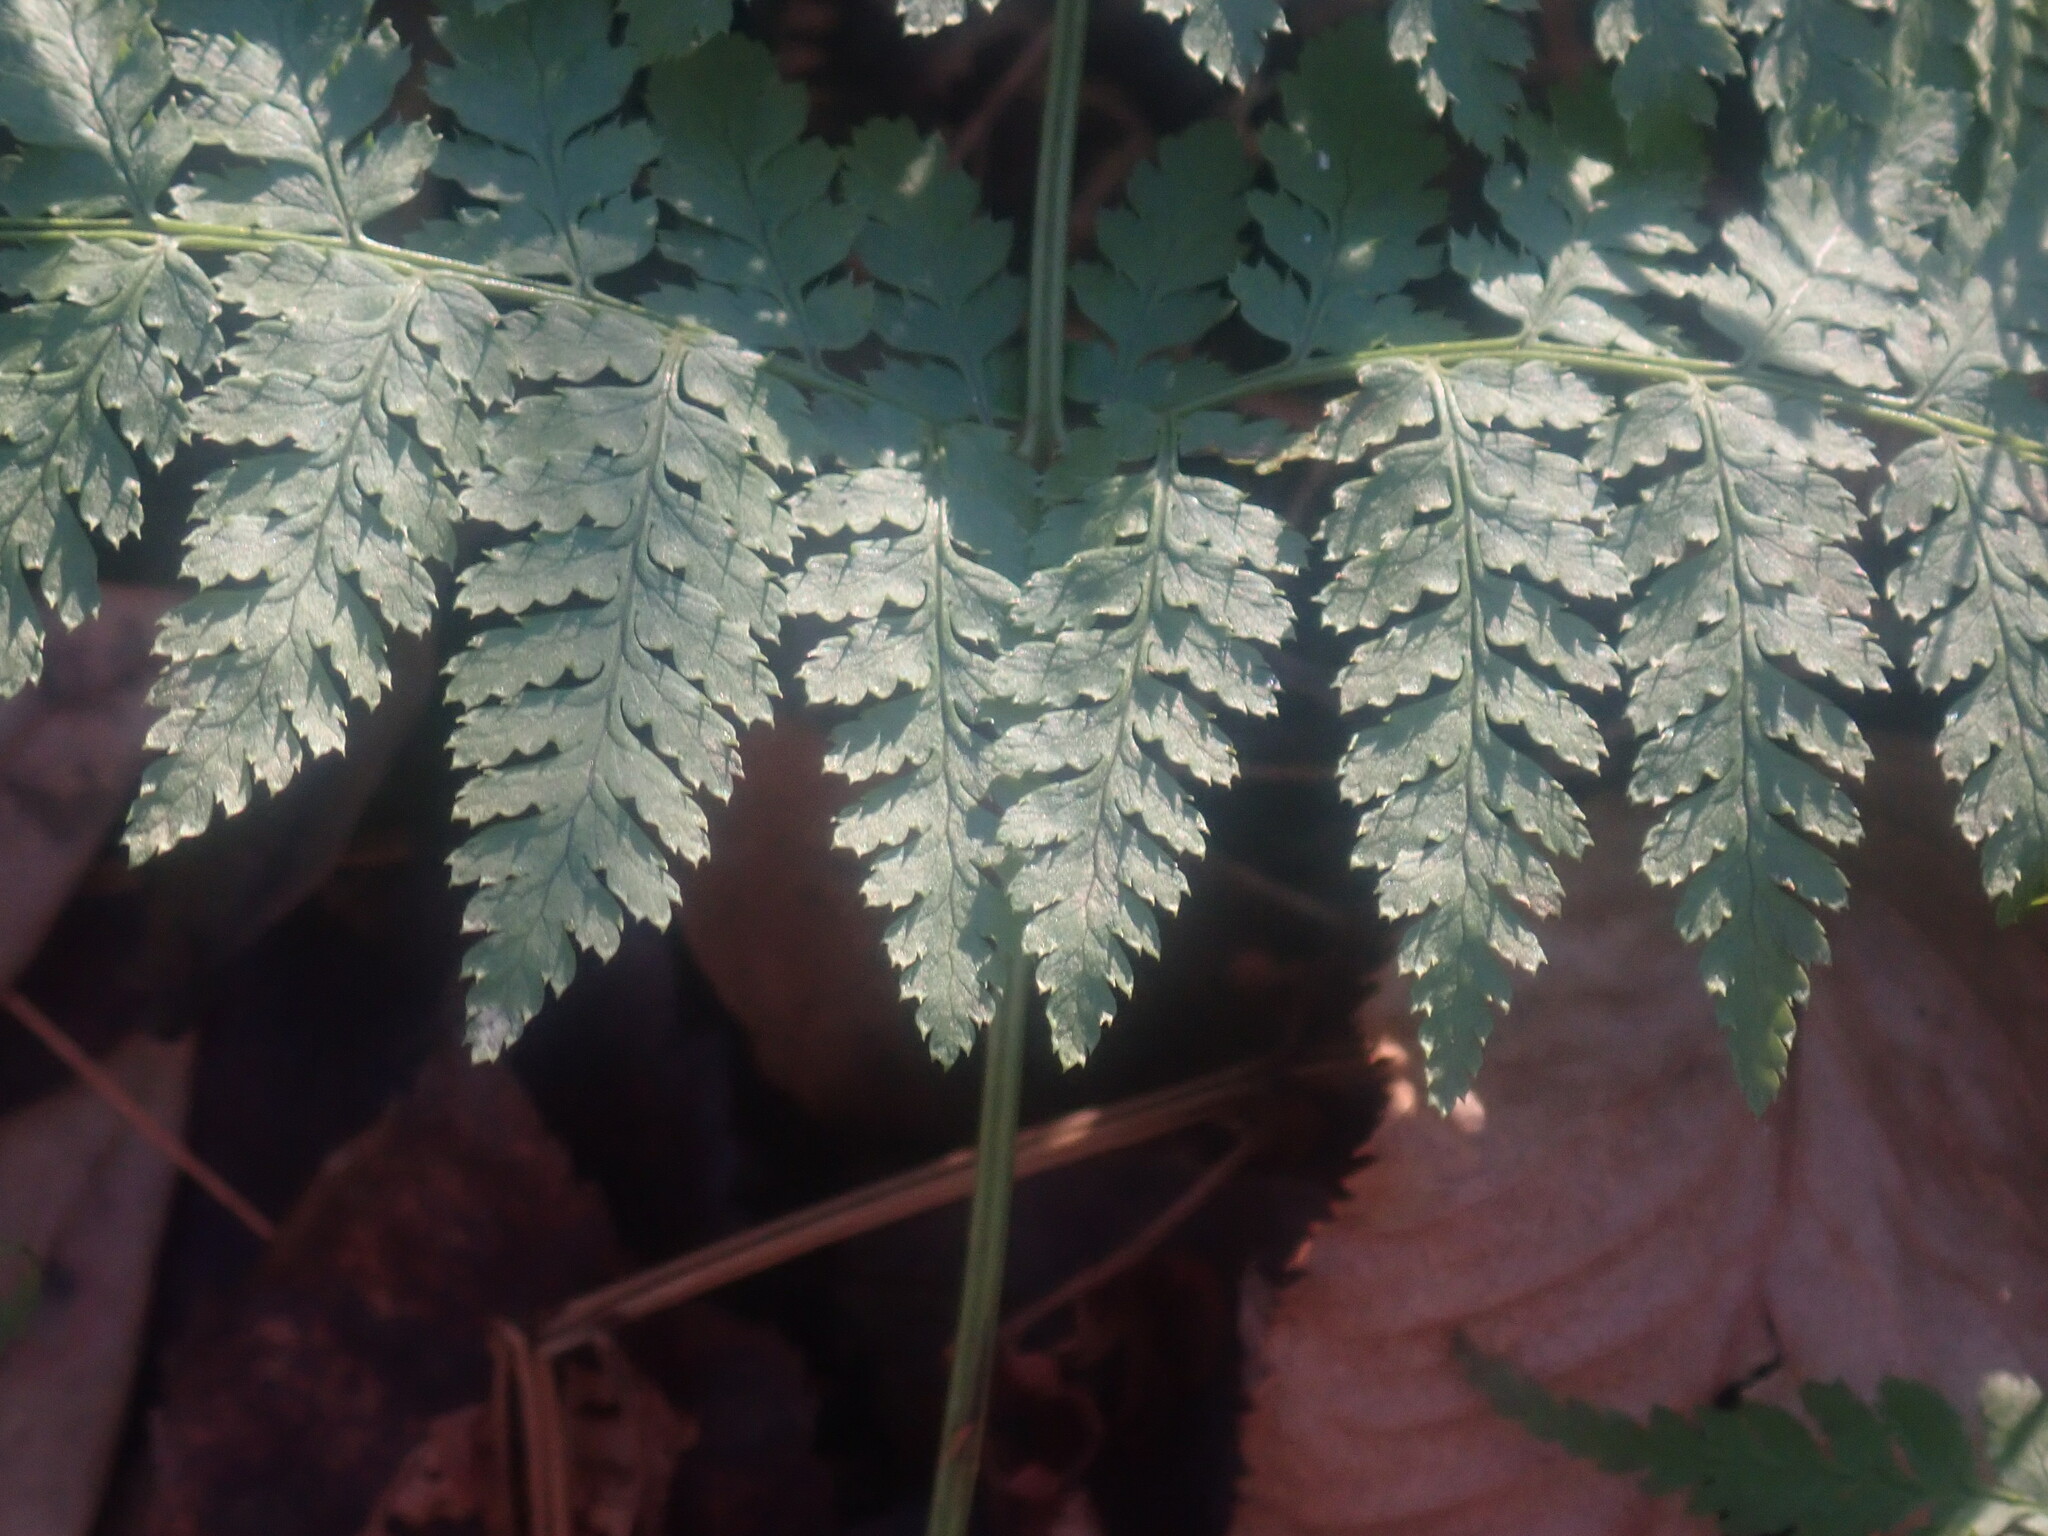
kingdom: Plantae
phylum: Tracheophyta
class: Polypodiopsida
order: Polypodiales
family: Dryopteridaceae
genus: Dryopteris
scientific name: Dryopteris intermedia
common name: Evergreen wood fern
